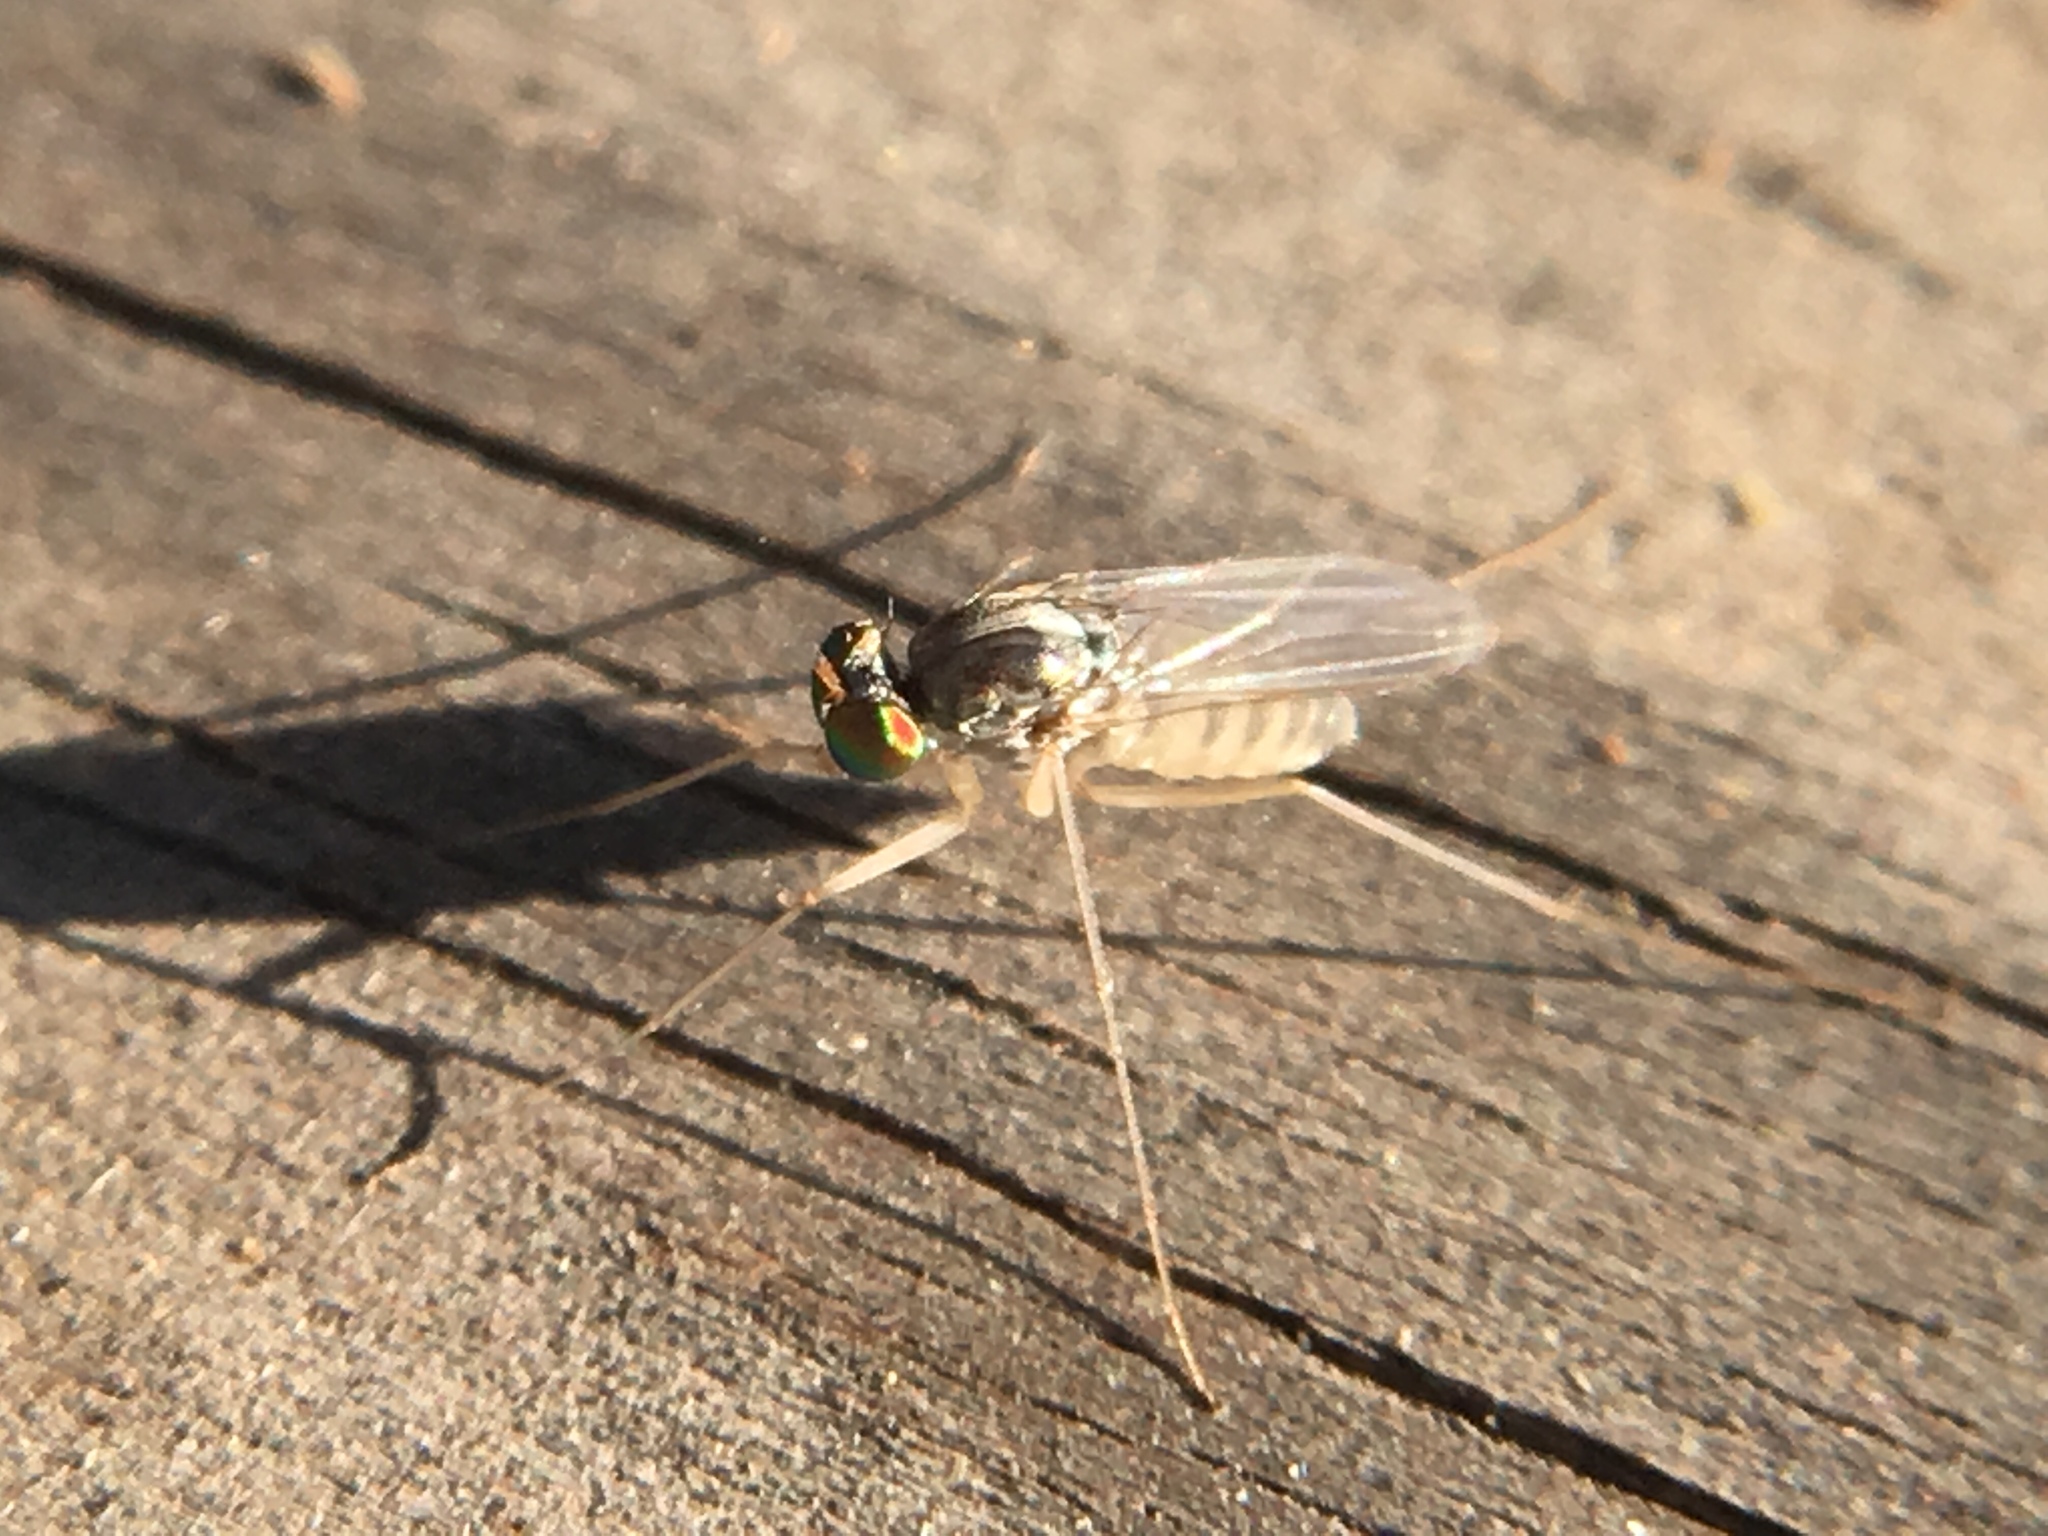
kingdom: Animalia
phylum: Arthropoda
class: Insecta
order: Diptera
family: Dolichopodidae
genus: Dactylomyia
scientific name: Dactylomyia lateralis
